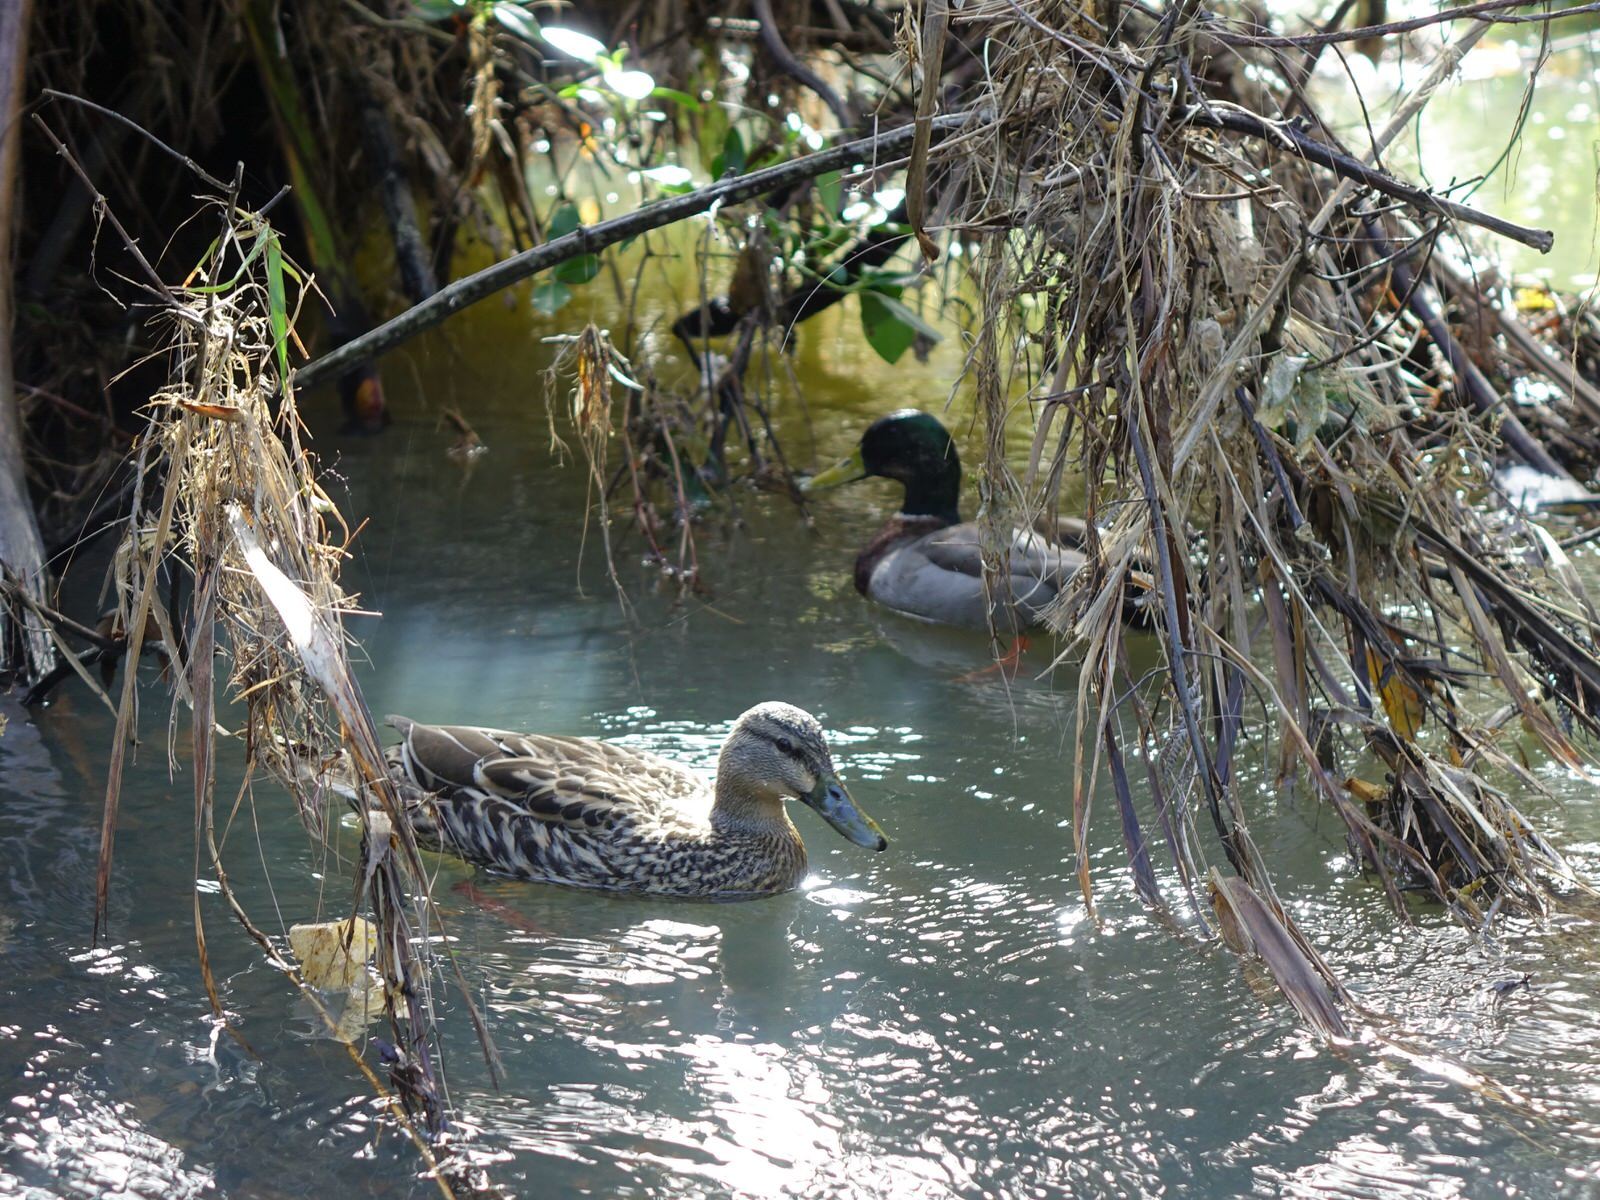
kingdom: Animalia
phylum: Chordata
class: Aves
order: Anseriformes
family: Anatidae
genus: Anas
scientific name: Anas platyrhynchos
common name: Mallard
